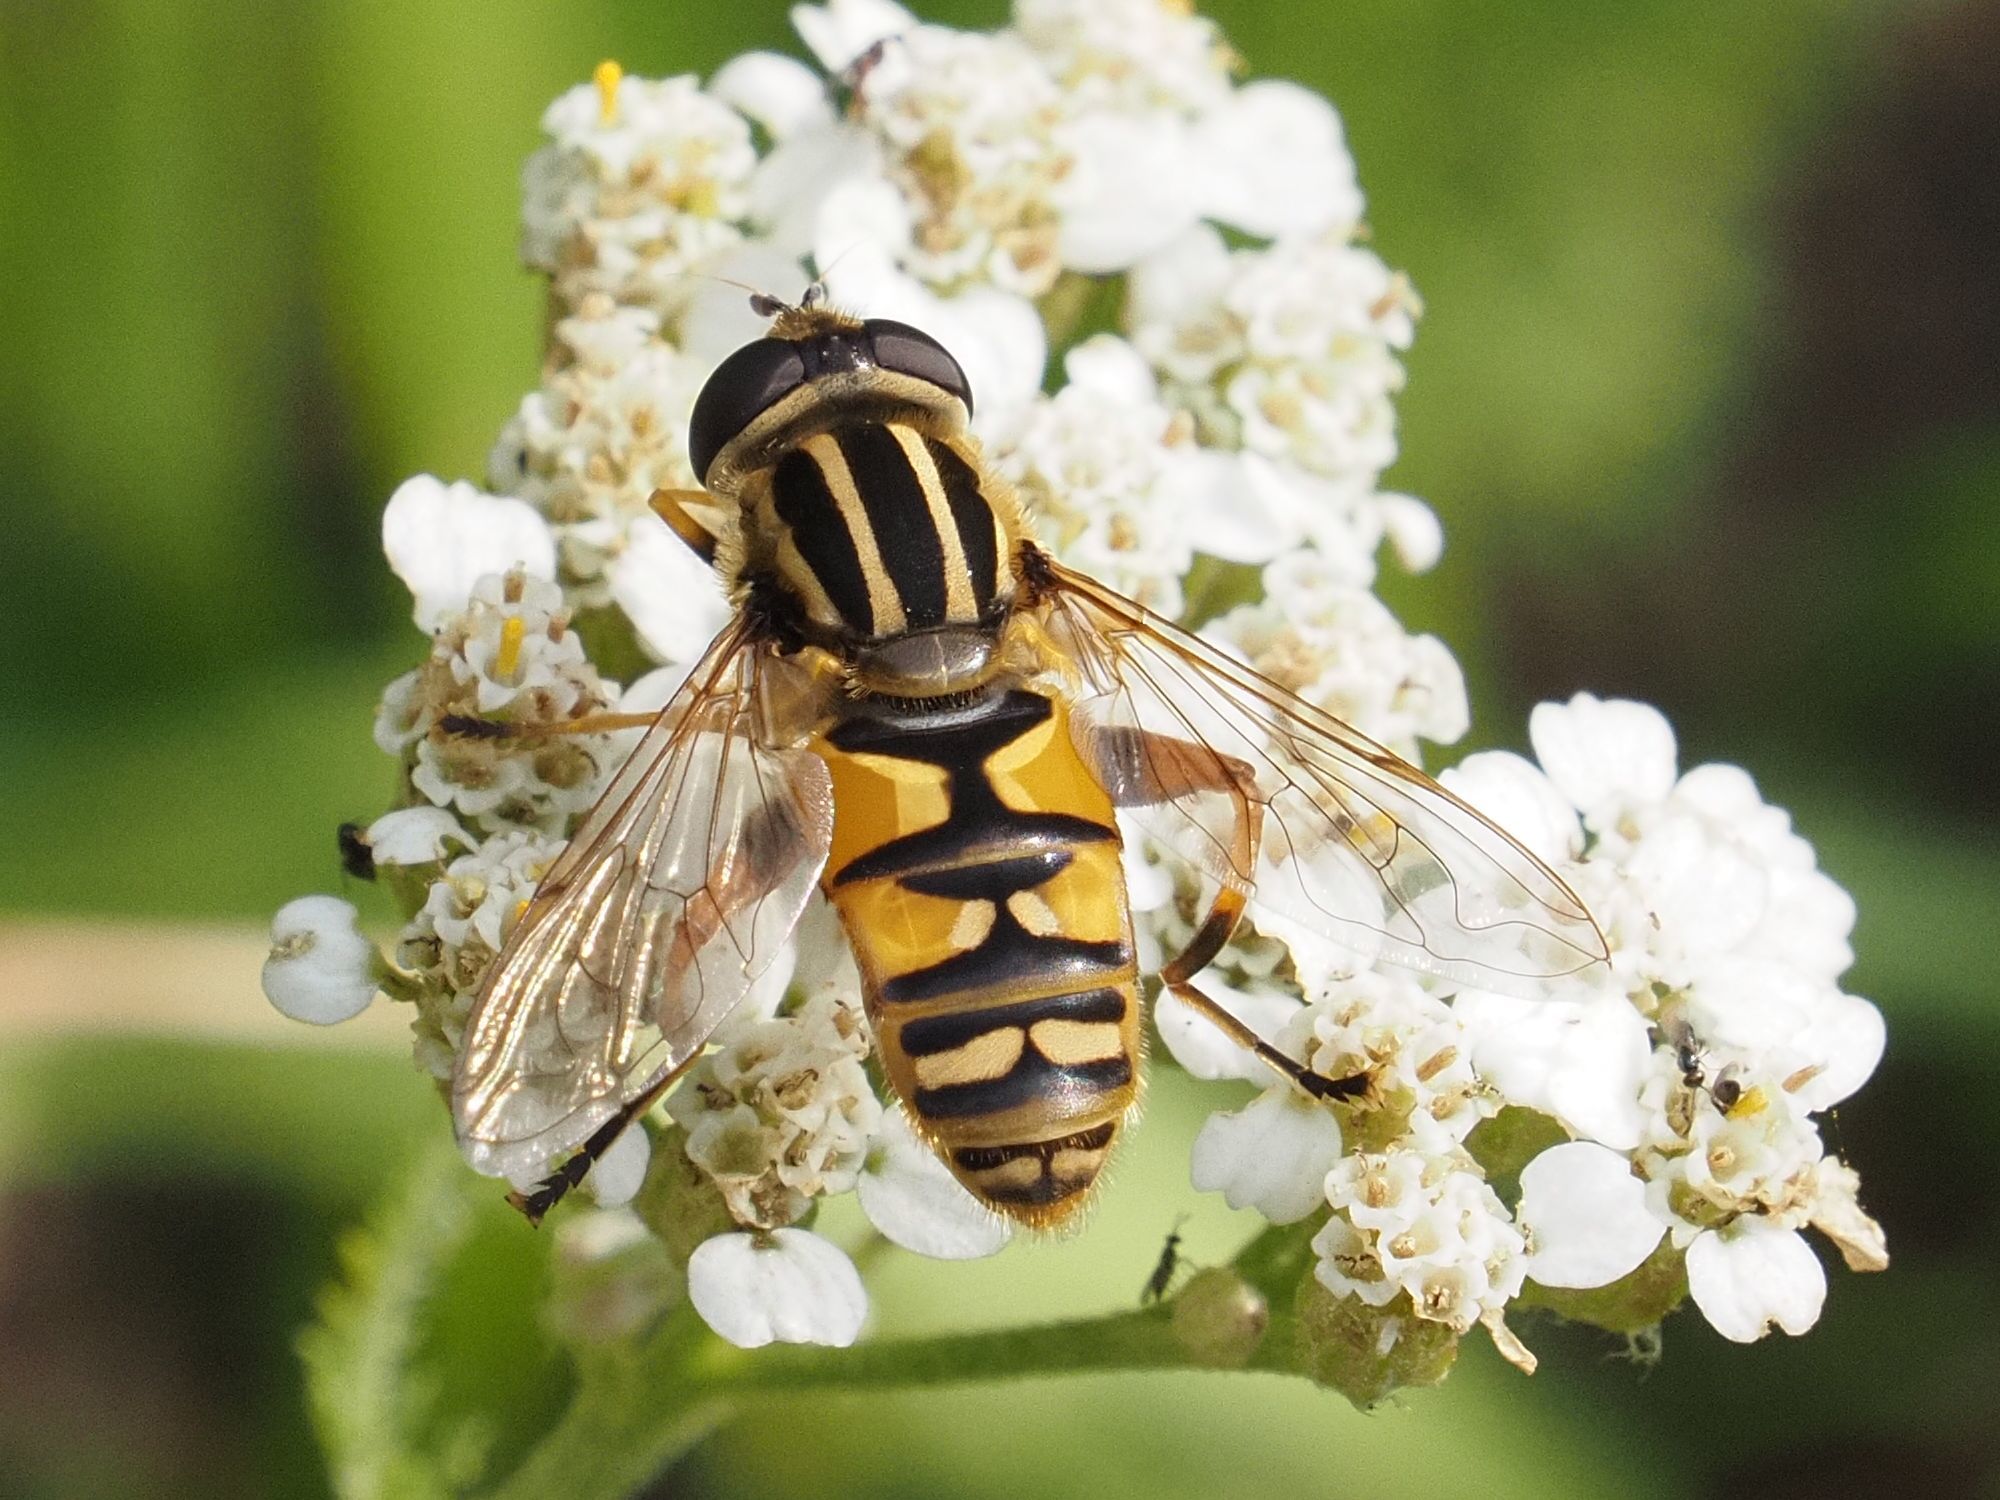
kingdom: Animalia
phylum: Arthropoda
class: Insecta
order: Diptera
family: Syrphidae
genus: Helophilus
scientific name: Helophilus pendulus
